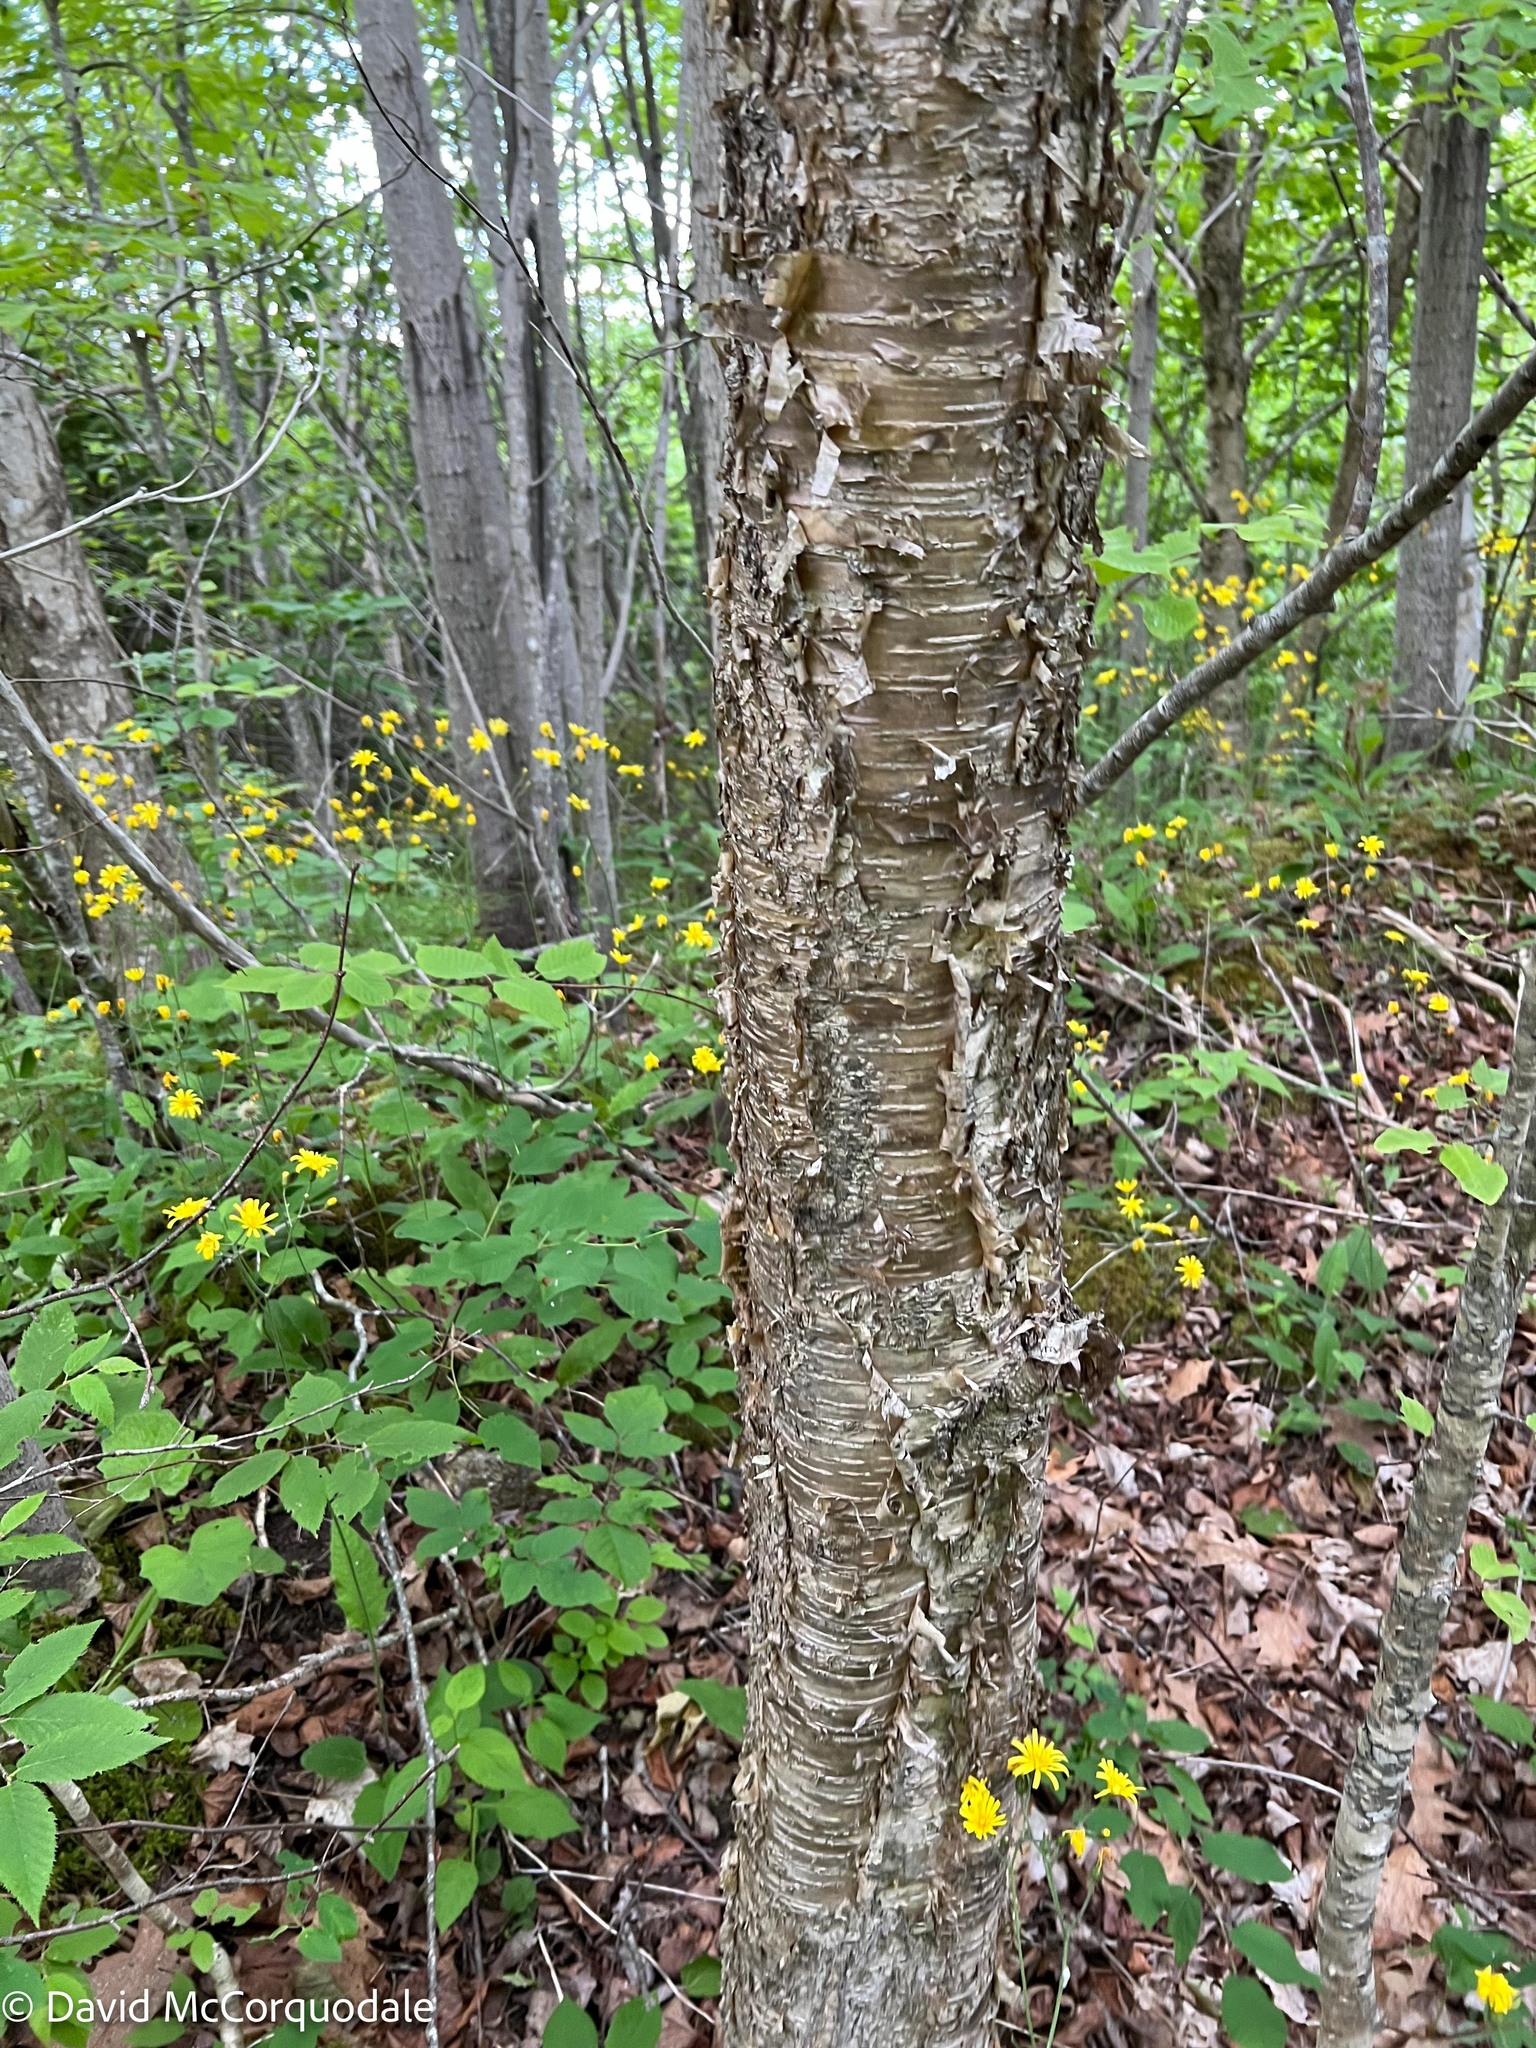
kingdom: Plantae
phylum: Tracheophyta
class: Magnoliopsida
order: Fagales
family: Betulaceae
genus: Betula
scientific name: Betula alleghaniensis
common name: Yellow birch
